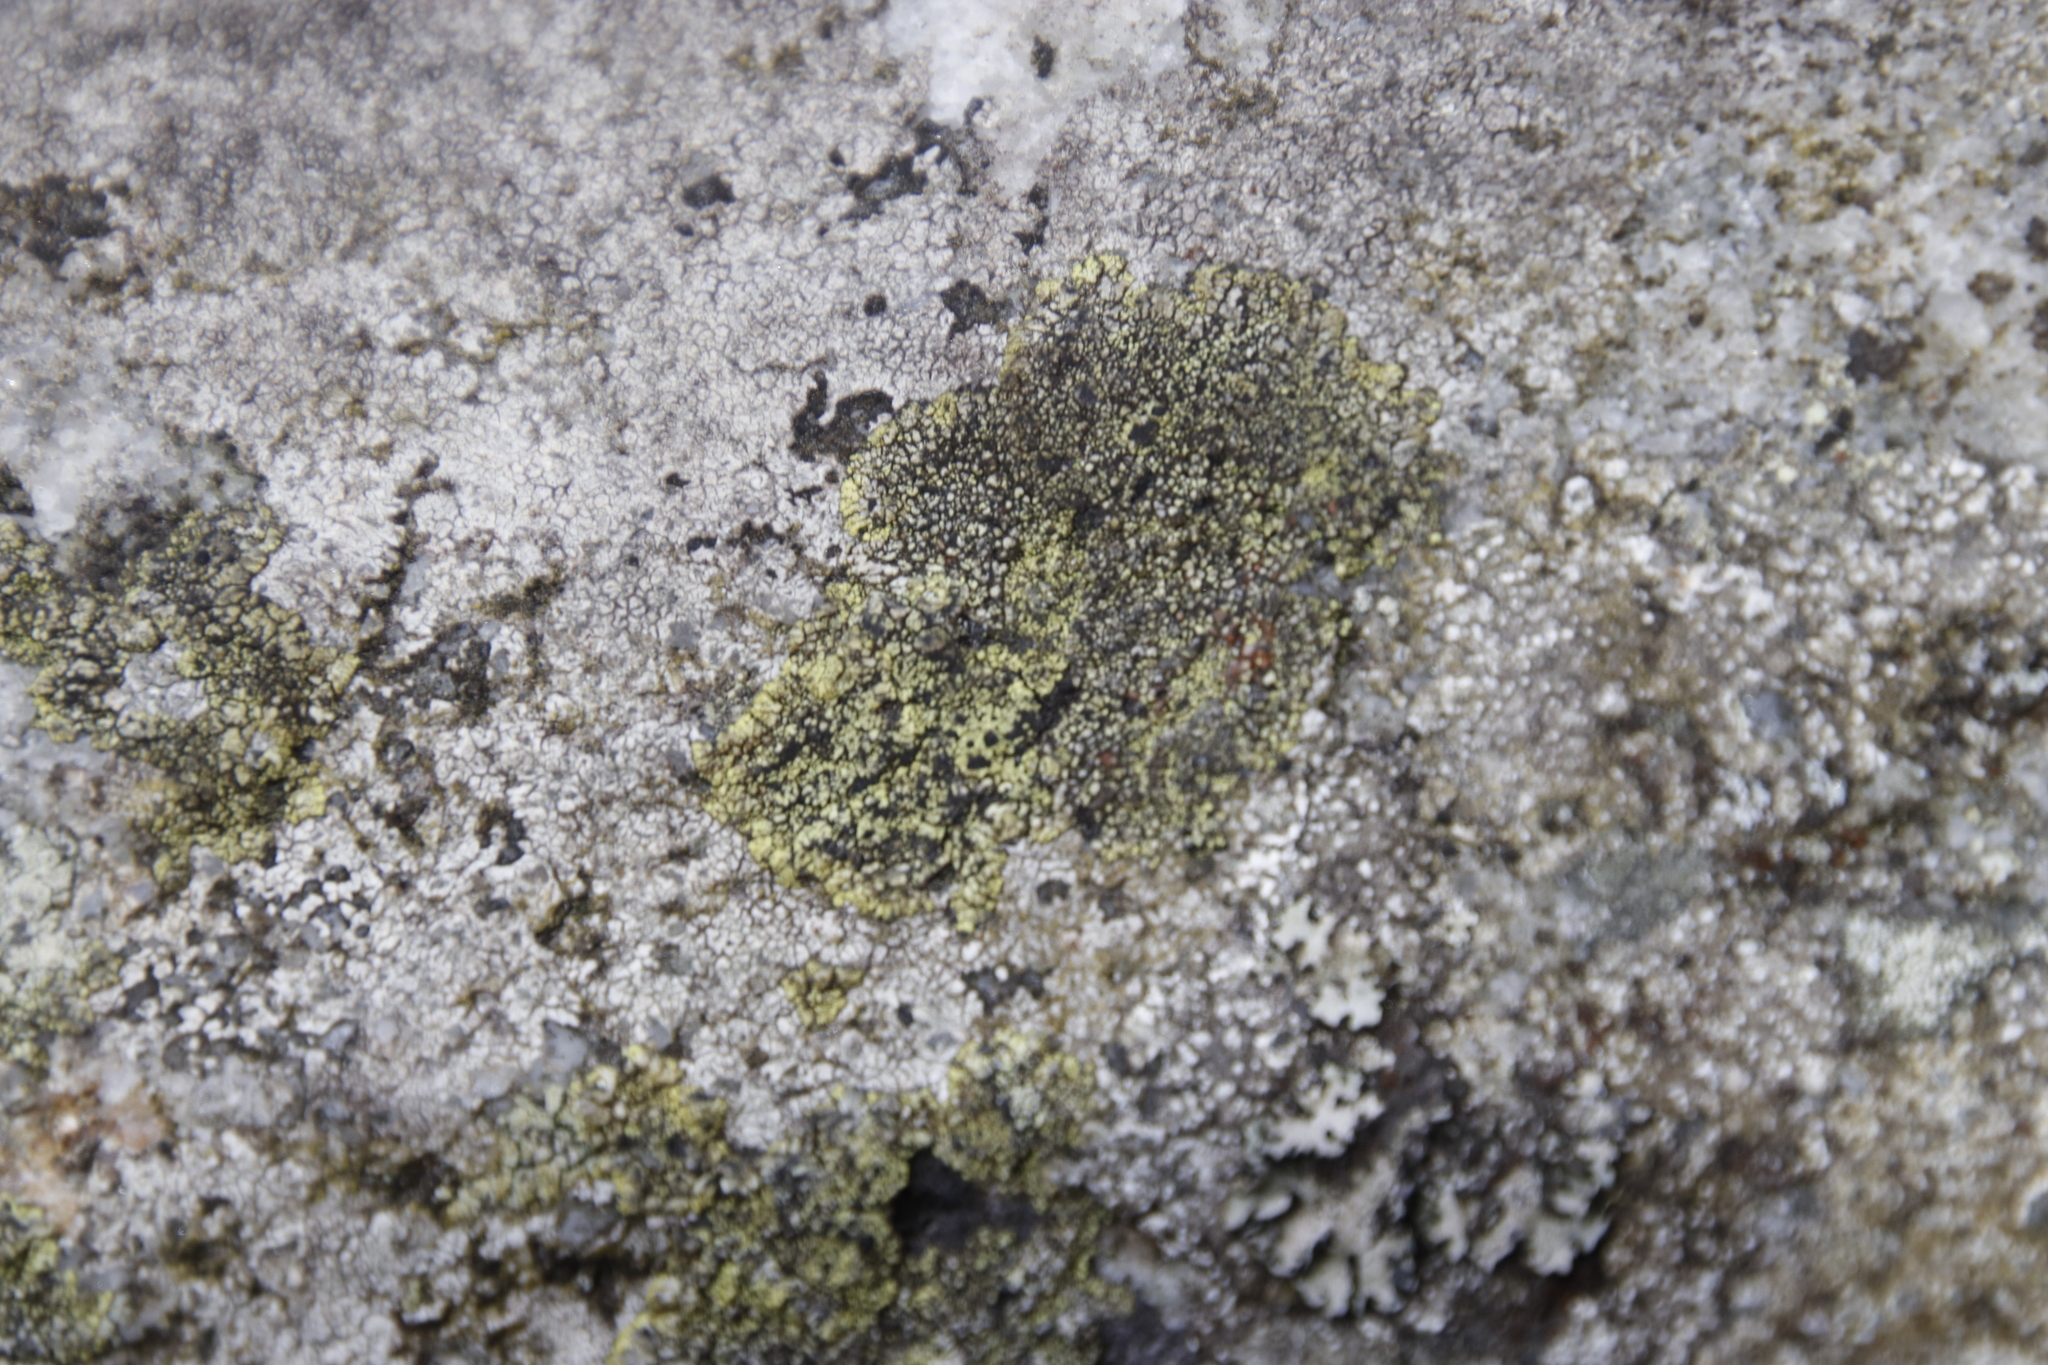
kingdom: Fungi
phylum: Ascomycota
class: Lecanoromycetes
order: Caliciales
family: Caliciaceae
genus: Diploicia
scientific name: Diploicia africana
